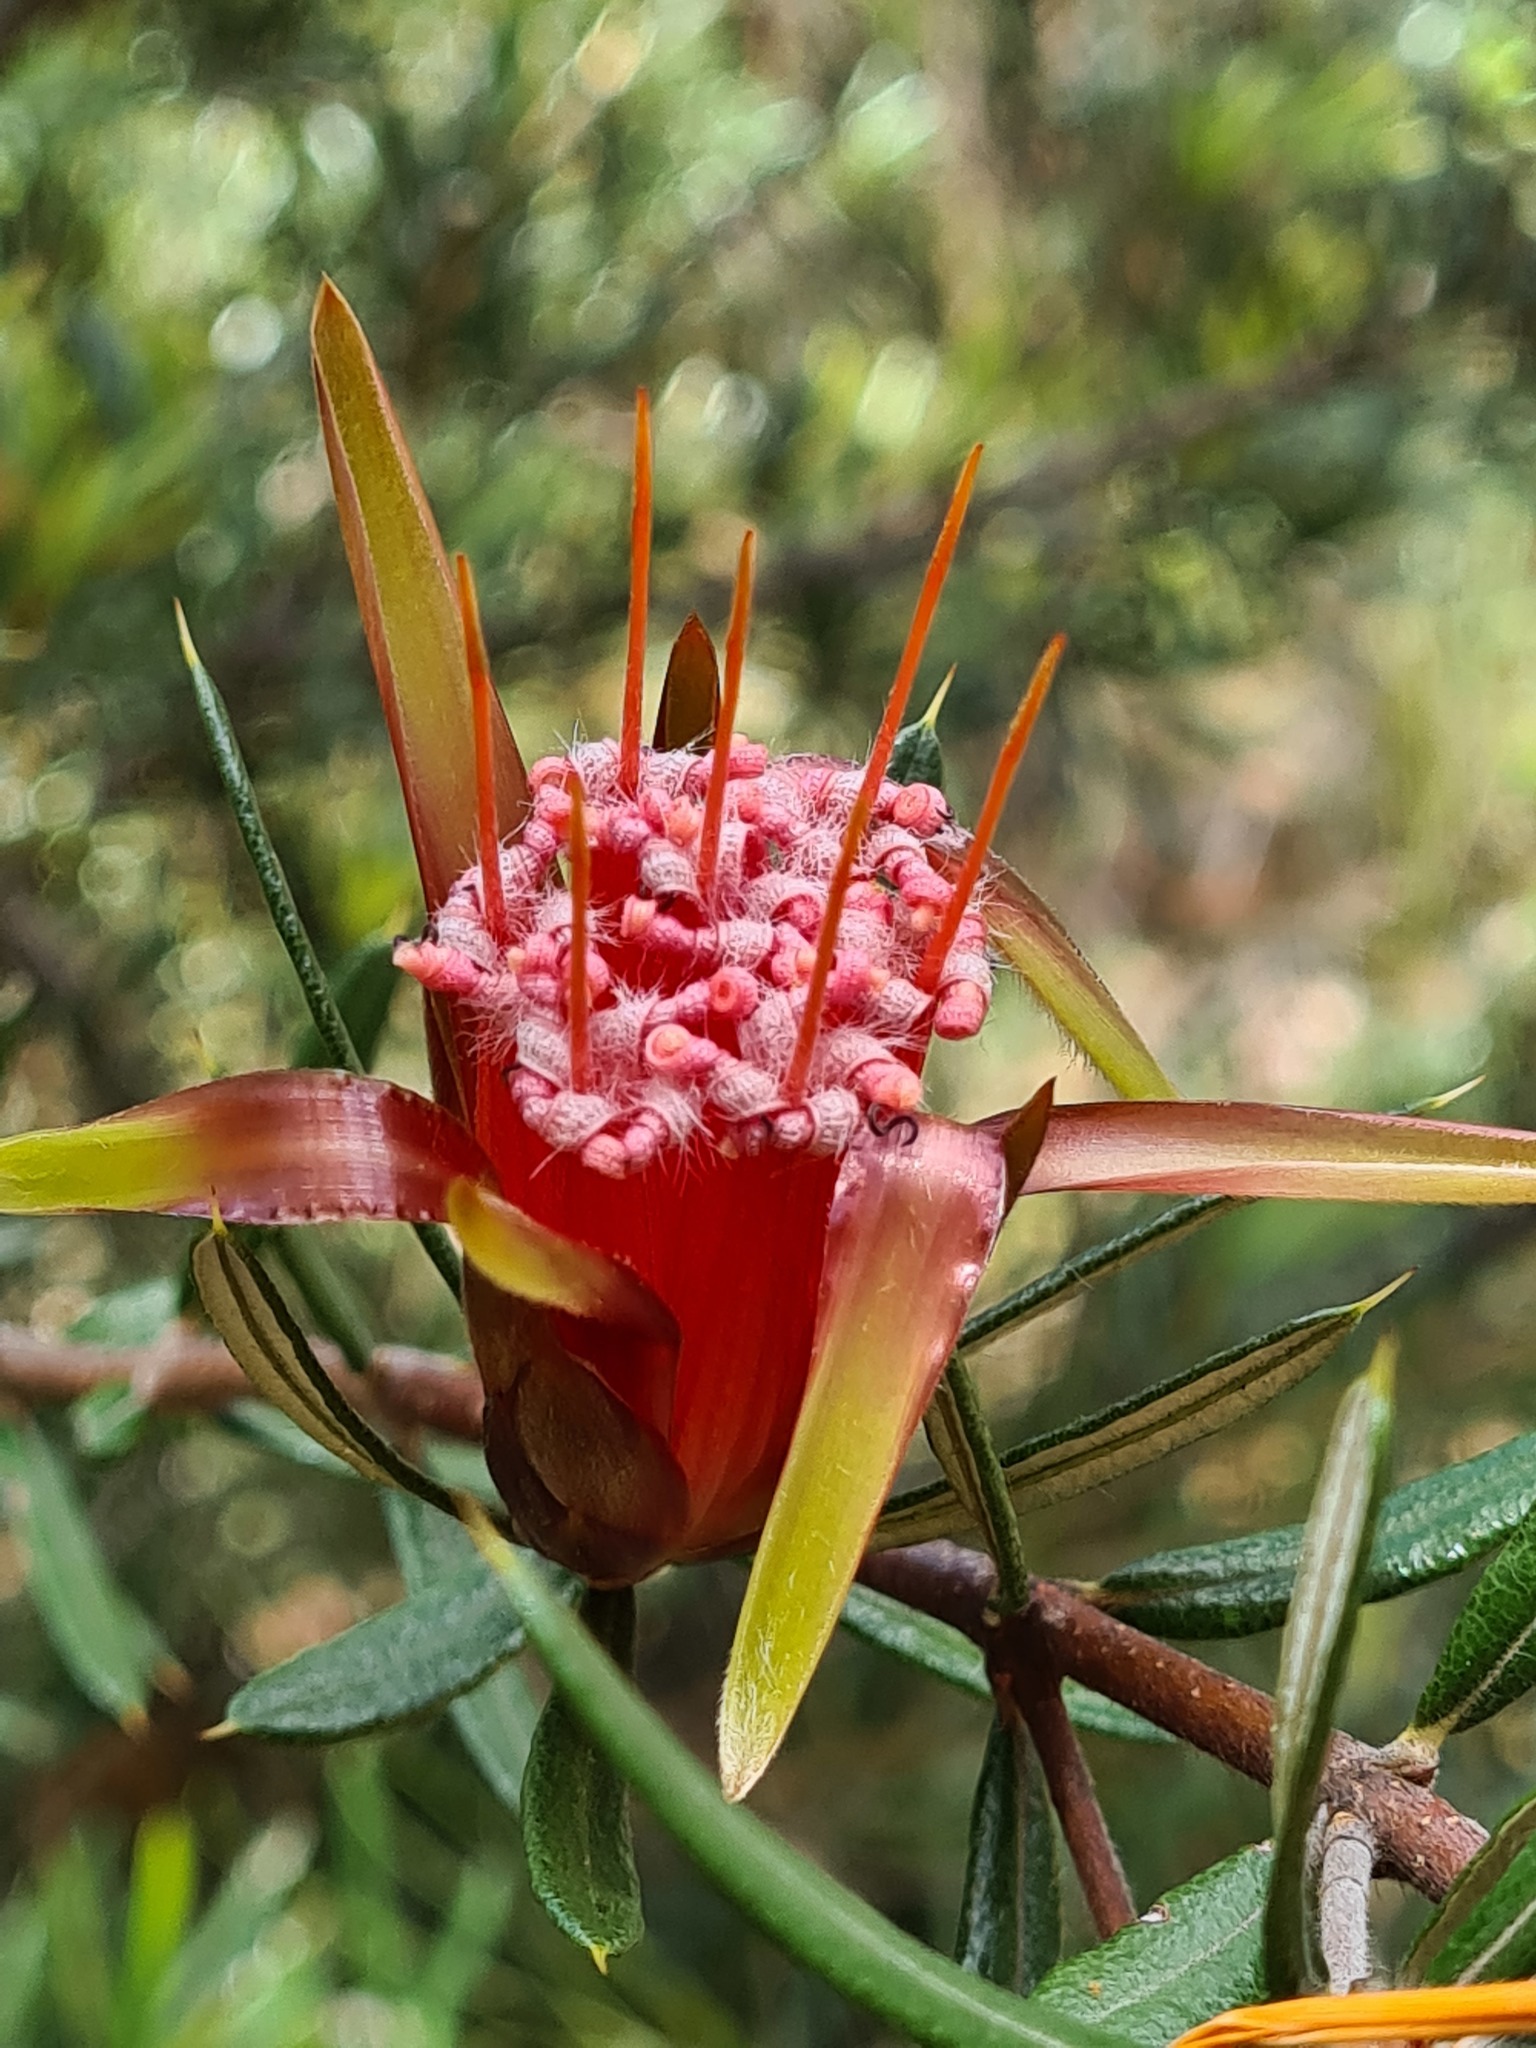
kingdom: Plantae
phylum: Tracheophyta
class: Magnoliopsida
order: Proteales
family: Proteaceae
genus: Lambertia
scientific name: Lambertia formosa
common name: Mountain-devil
